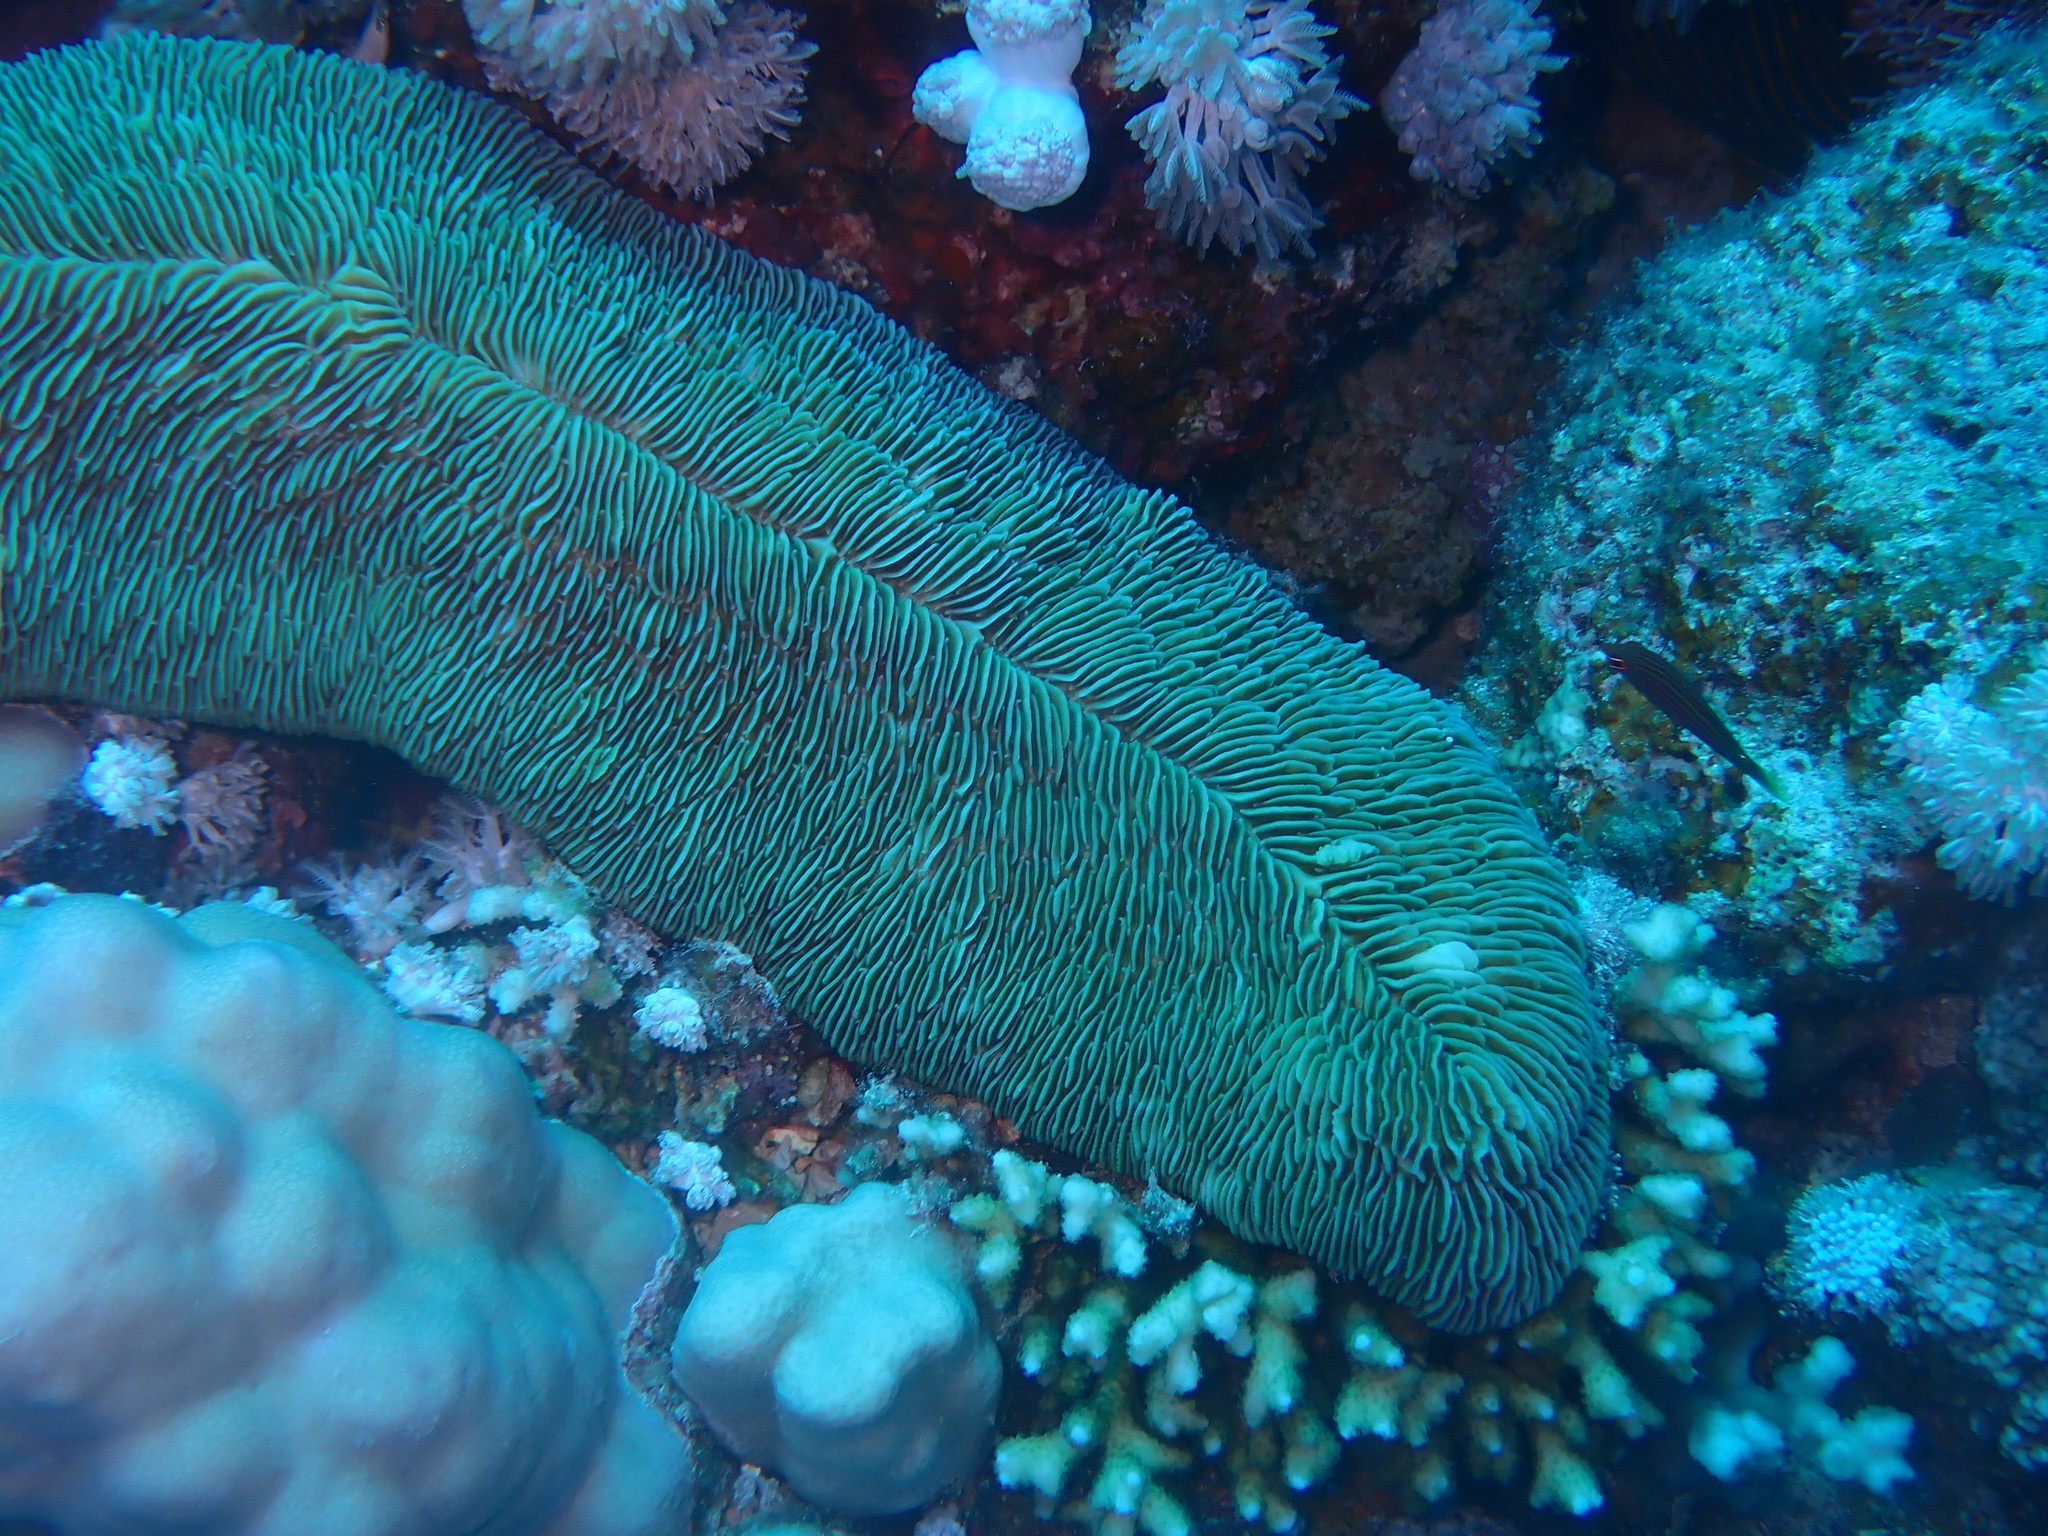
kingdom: Animalia
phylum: Cnidaria
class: Anthozoa
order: Scleractinia
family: Fungiidae
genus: Herpolitha
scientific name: Herpolitha limax
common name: Striate boomerang coral
